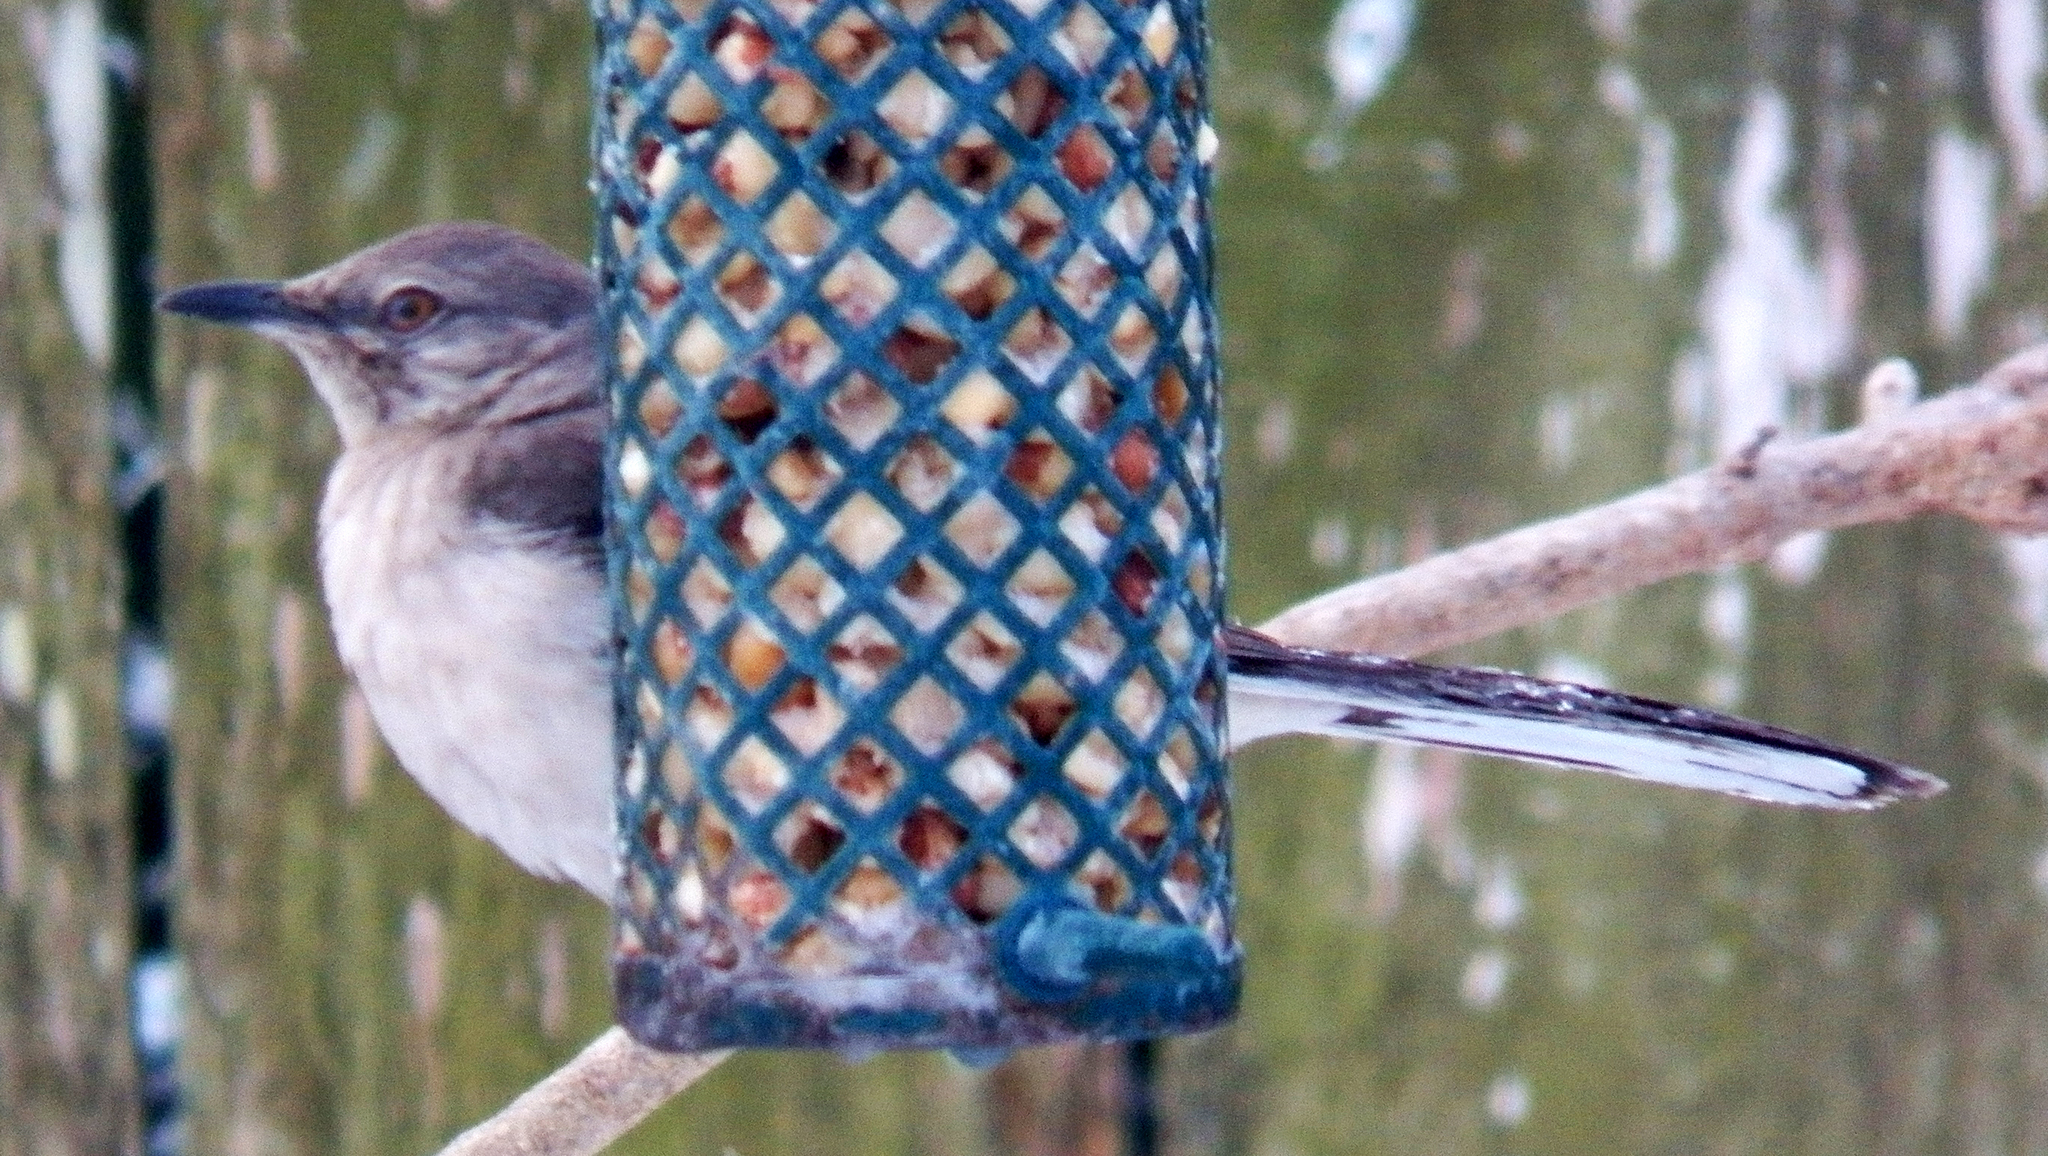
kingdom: Animalia
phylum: Chordata
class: Aves
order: Passeriformes
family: Mimidae
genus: Mimus
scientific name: Mimus polyglottos
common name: Northern mockingbird
